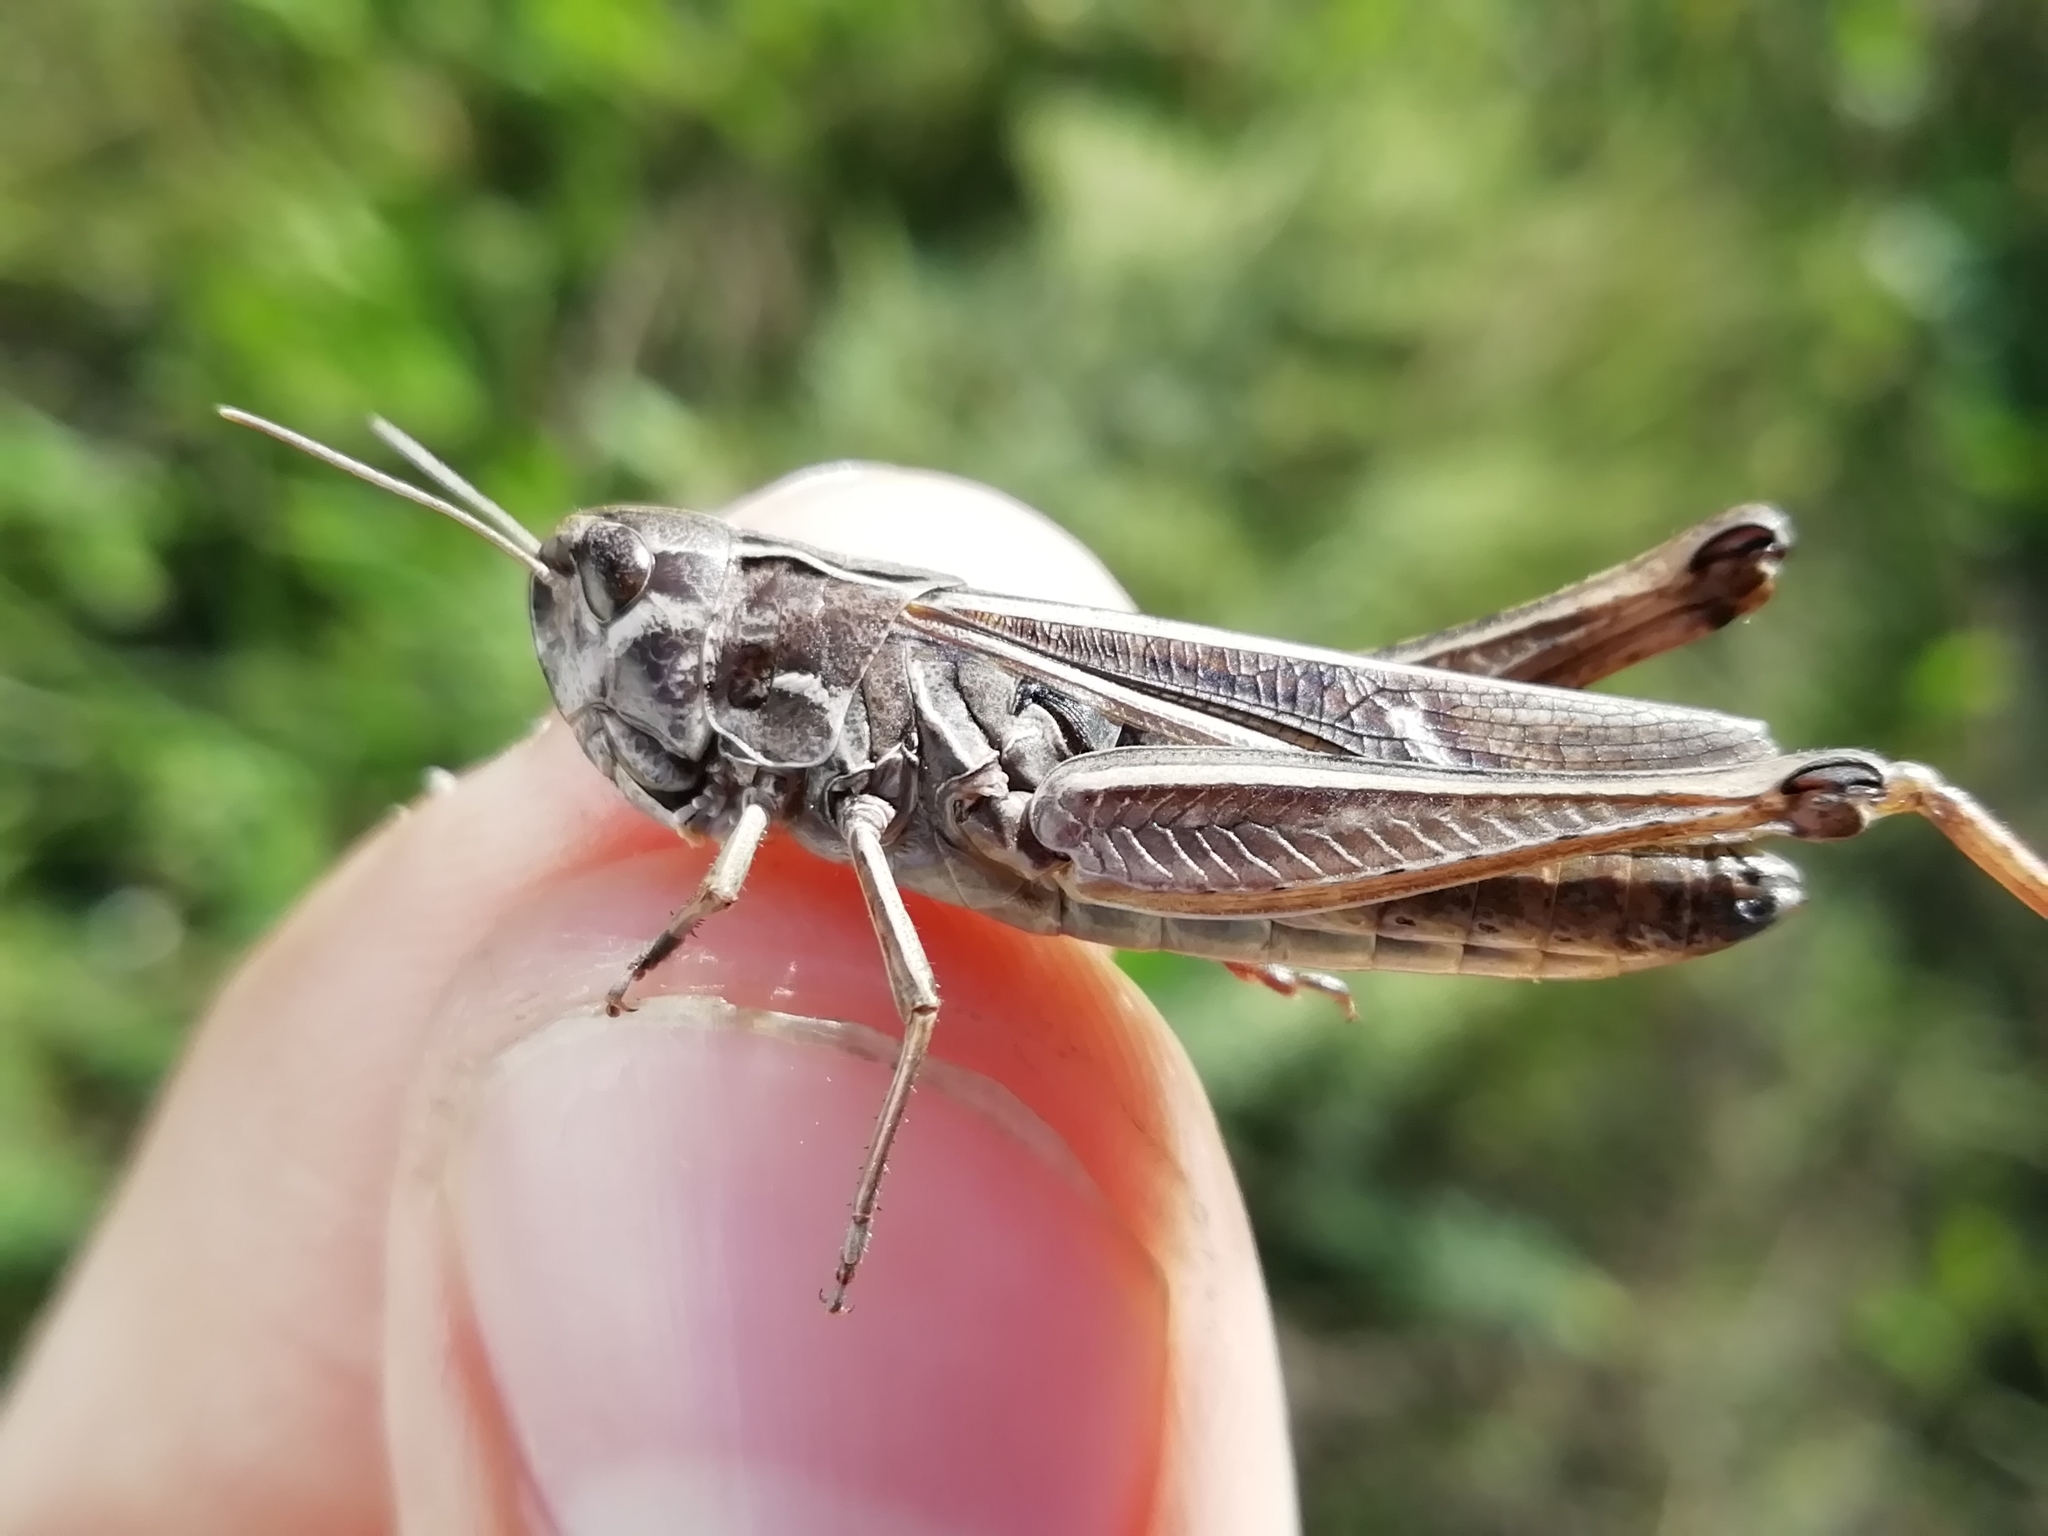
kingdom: Animalia
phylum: Arthropoda
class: Insecta
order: Orthoptera
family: Acrididae
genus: Stenobothrus
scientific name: Stenobothrus lineatus
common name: Stripe-winged grasshopper
